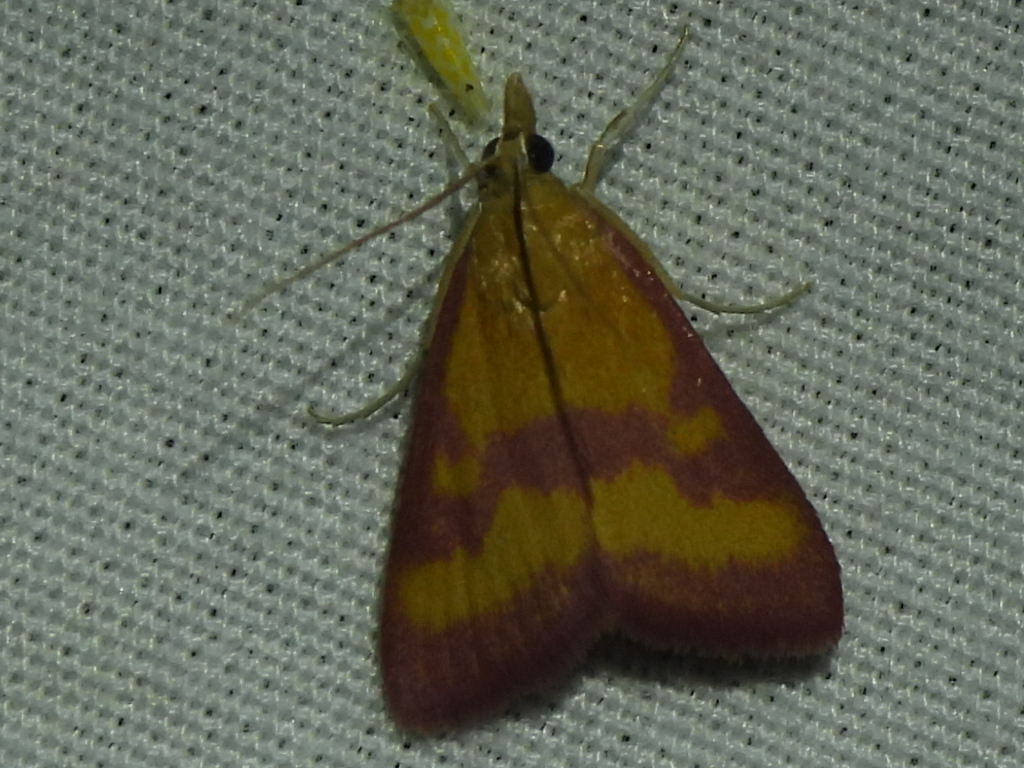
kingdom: Animalia
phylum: Arthropoda
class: Insecta
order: Lepidoptera
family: Crambidae
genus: Pyrausta
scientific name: Pyrausta laticlavia
